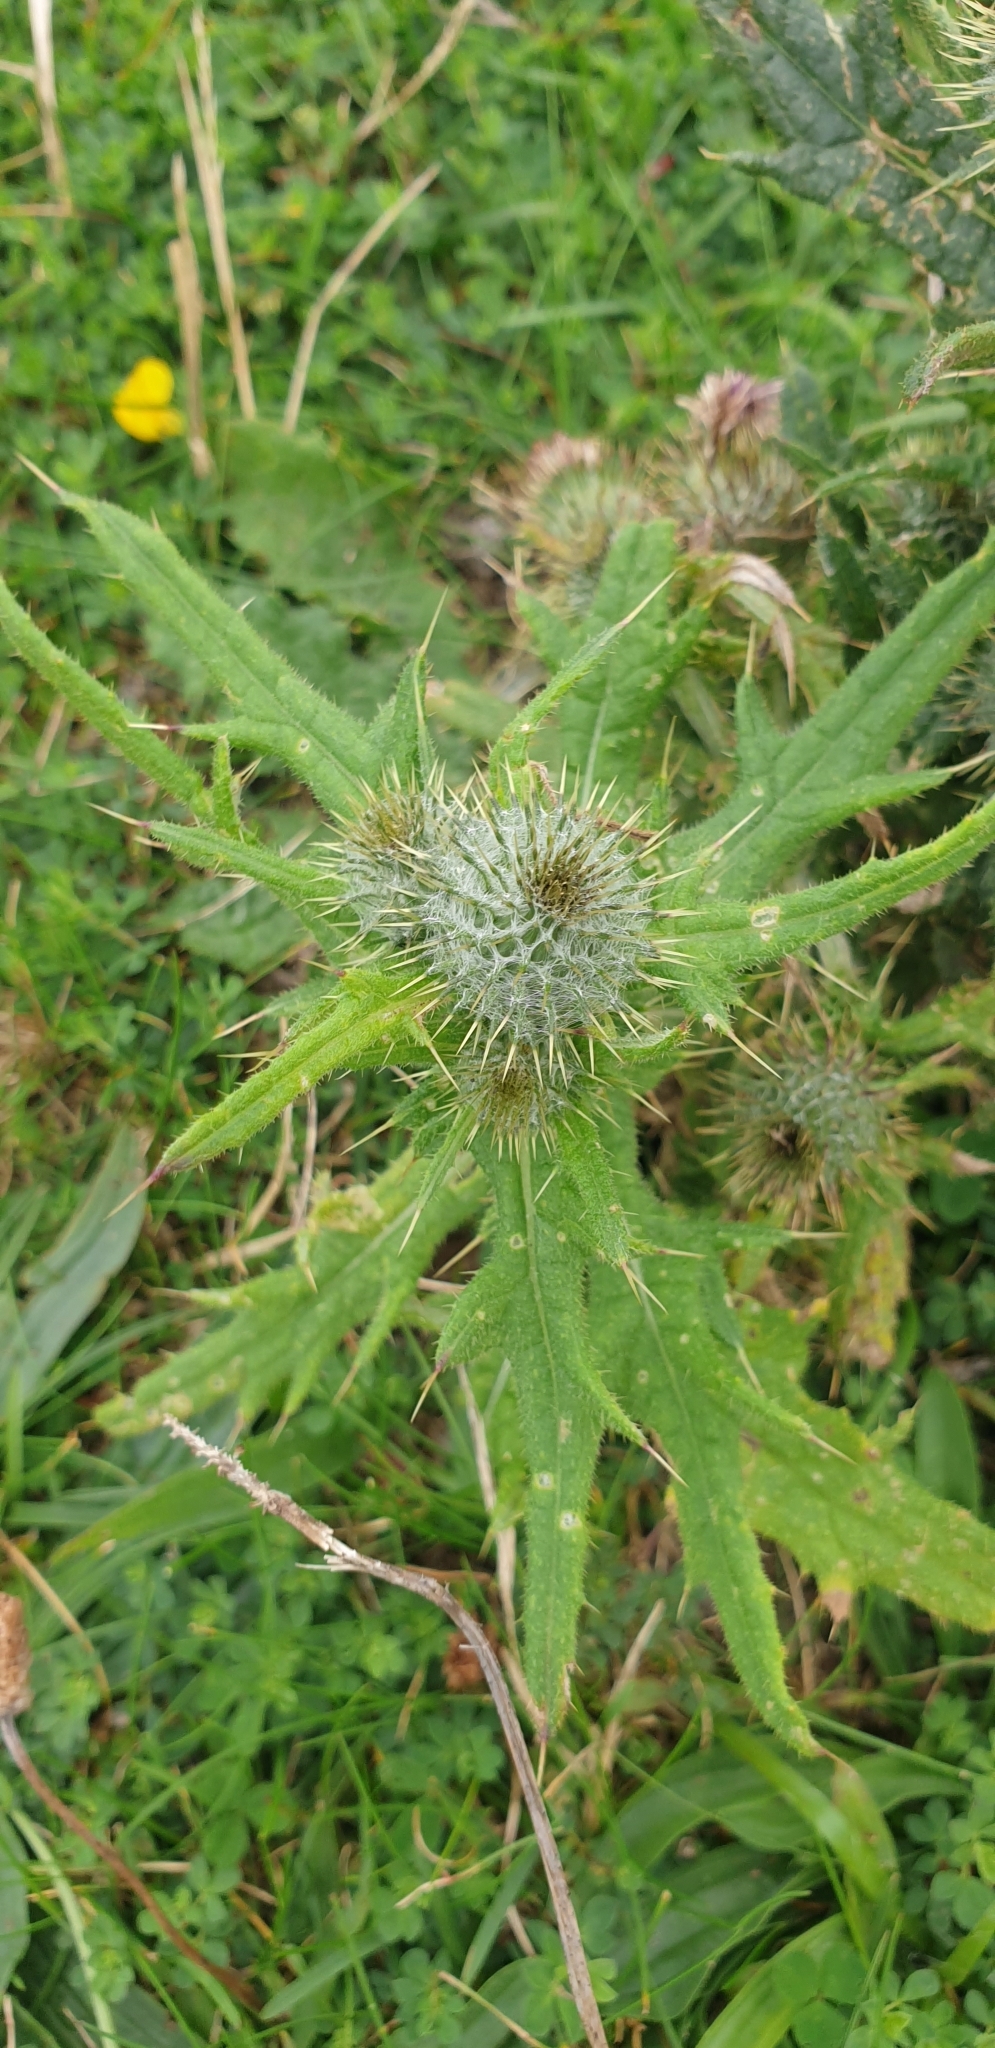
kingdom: Plantae
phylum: Tracheophyta
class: Magnoliopsida
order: Asterales
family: Asteraceae
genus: Cirsium
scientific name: Cirsium vulgare
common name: Bull thistle
